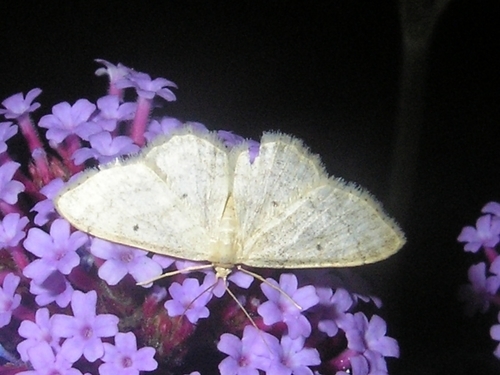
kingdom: Animalia
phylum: Arthropoda
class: Insecta
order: Lepidoptera
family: Geometridae
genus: Idaea
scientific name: Idaea biselata
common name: Small fan-footed wave
